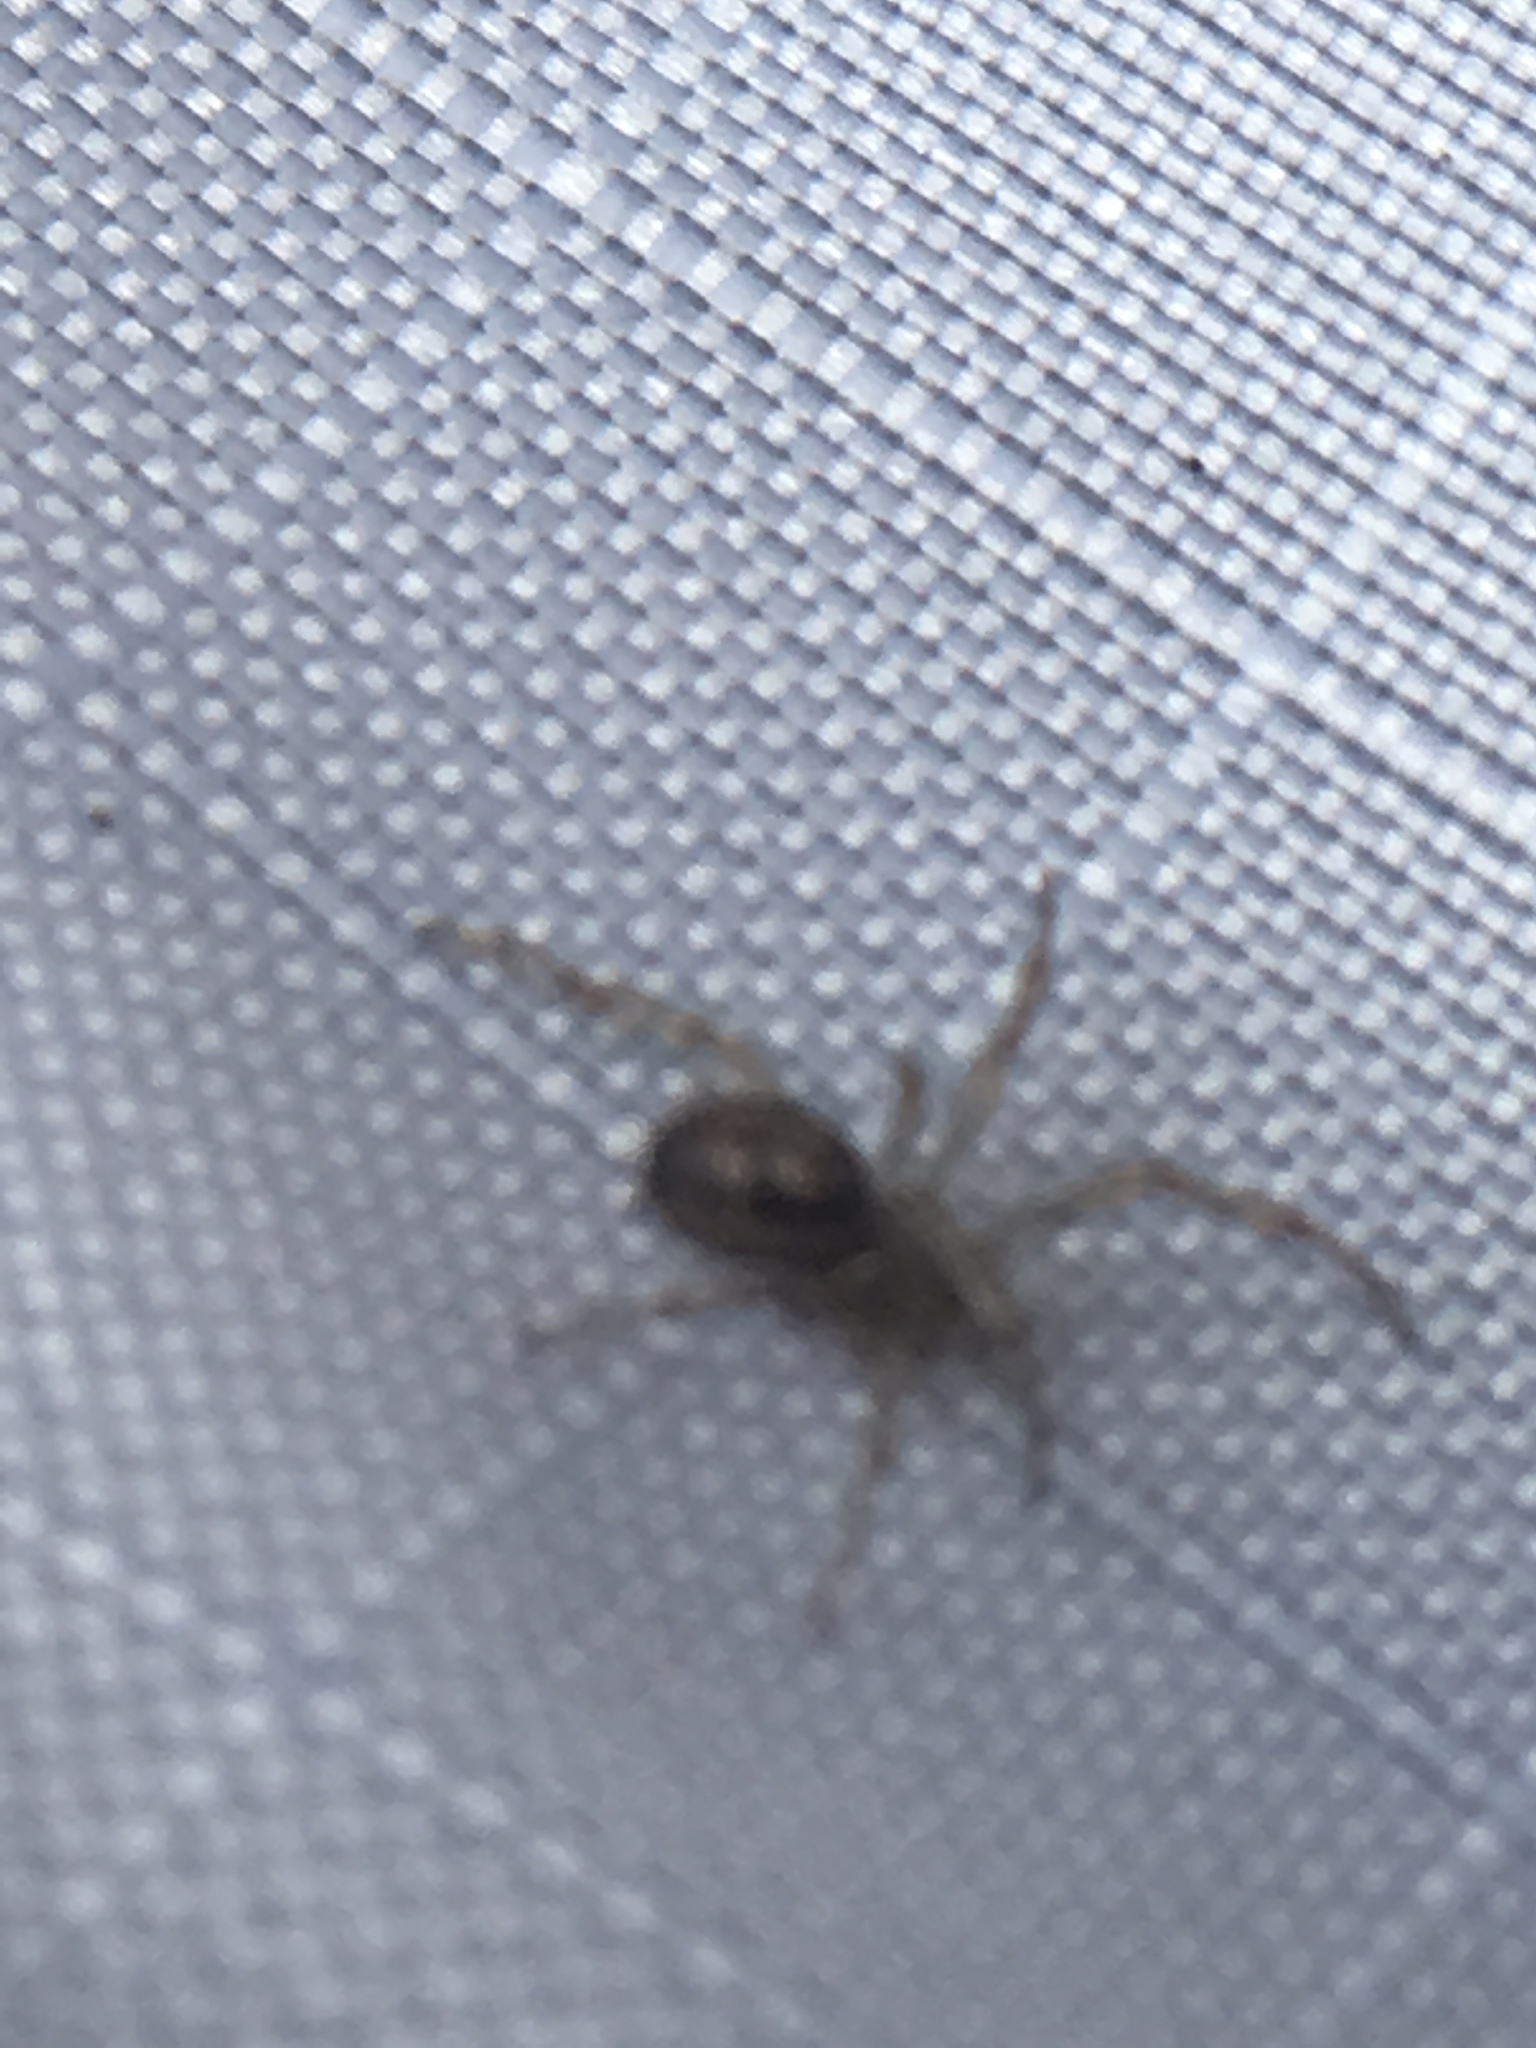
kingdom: Animalia
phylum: Arthropoda
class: Arachnida
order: Araneae
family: Theridiidae
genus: Steatoda
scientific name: Steatoda nobilis
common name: Cobweb weaver
